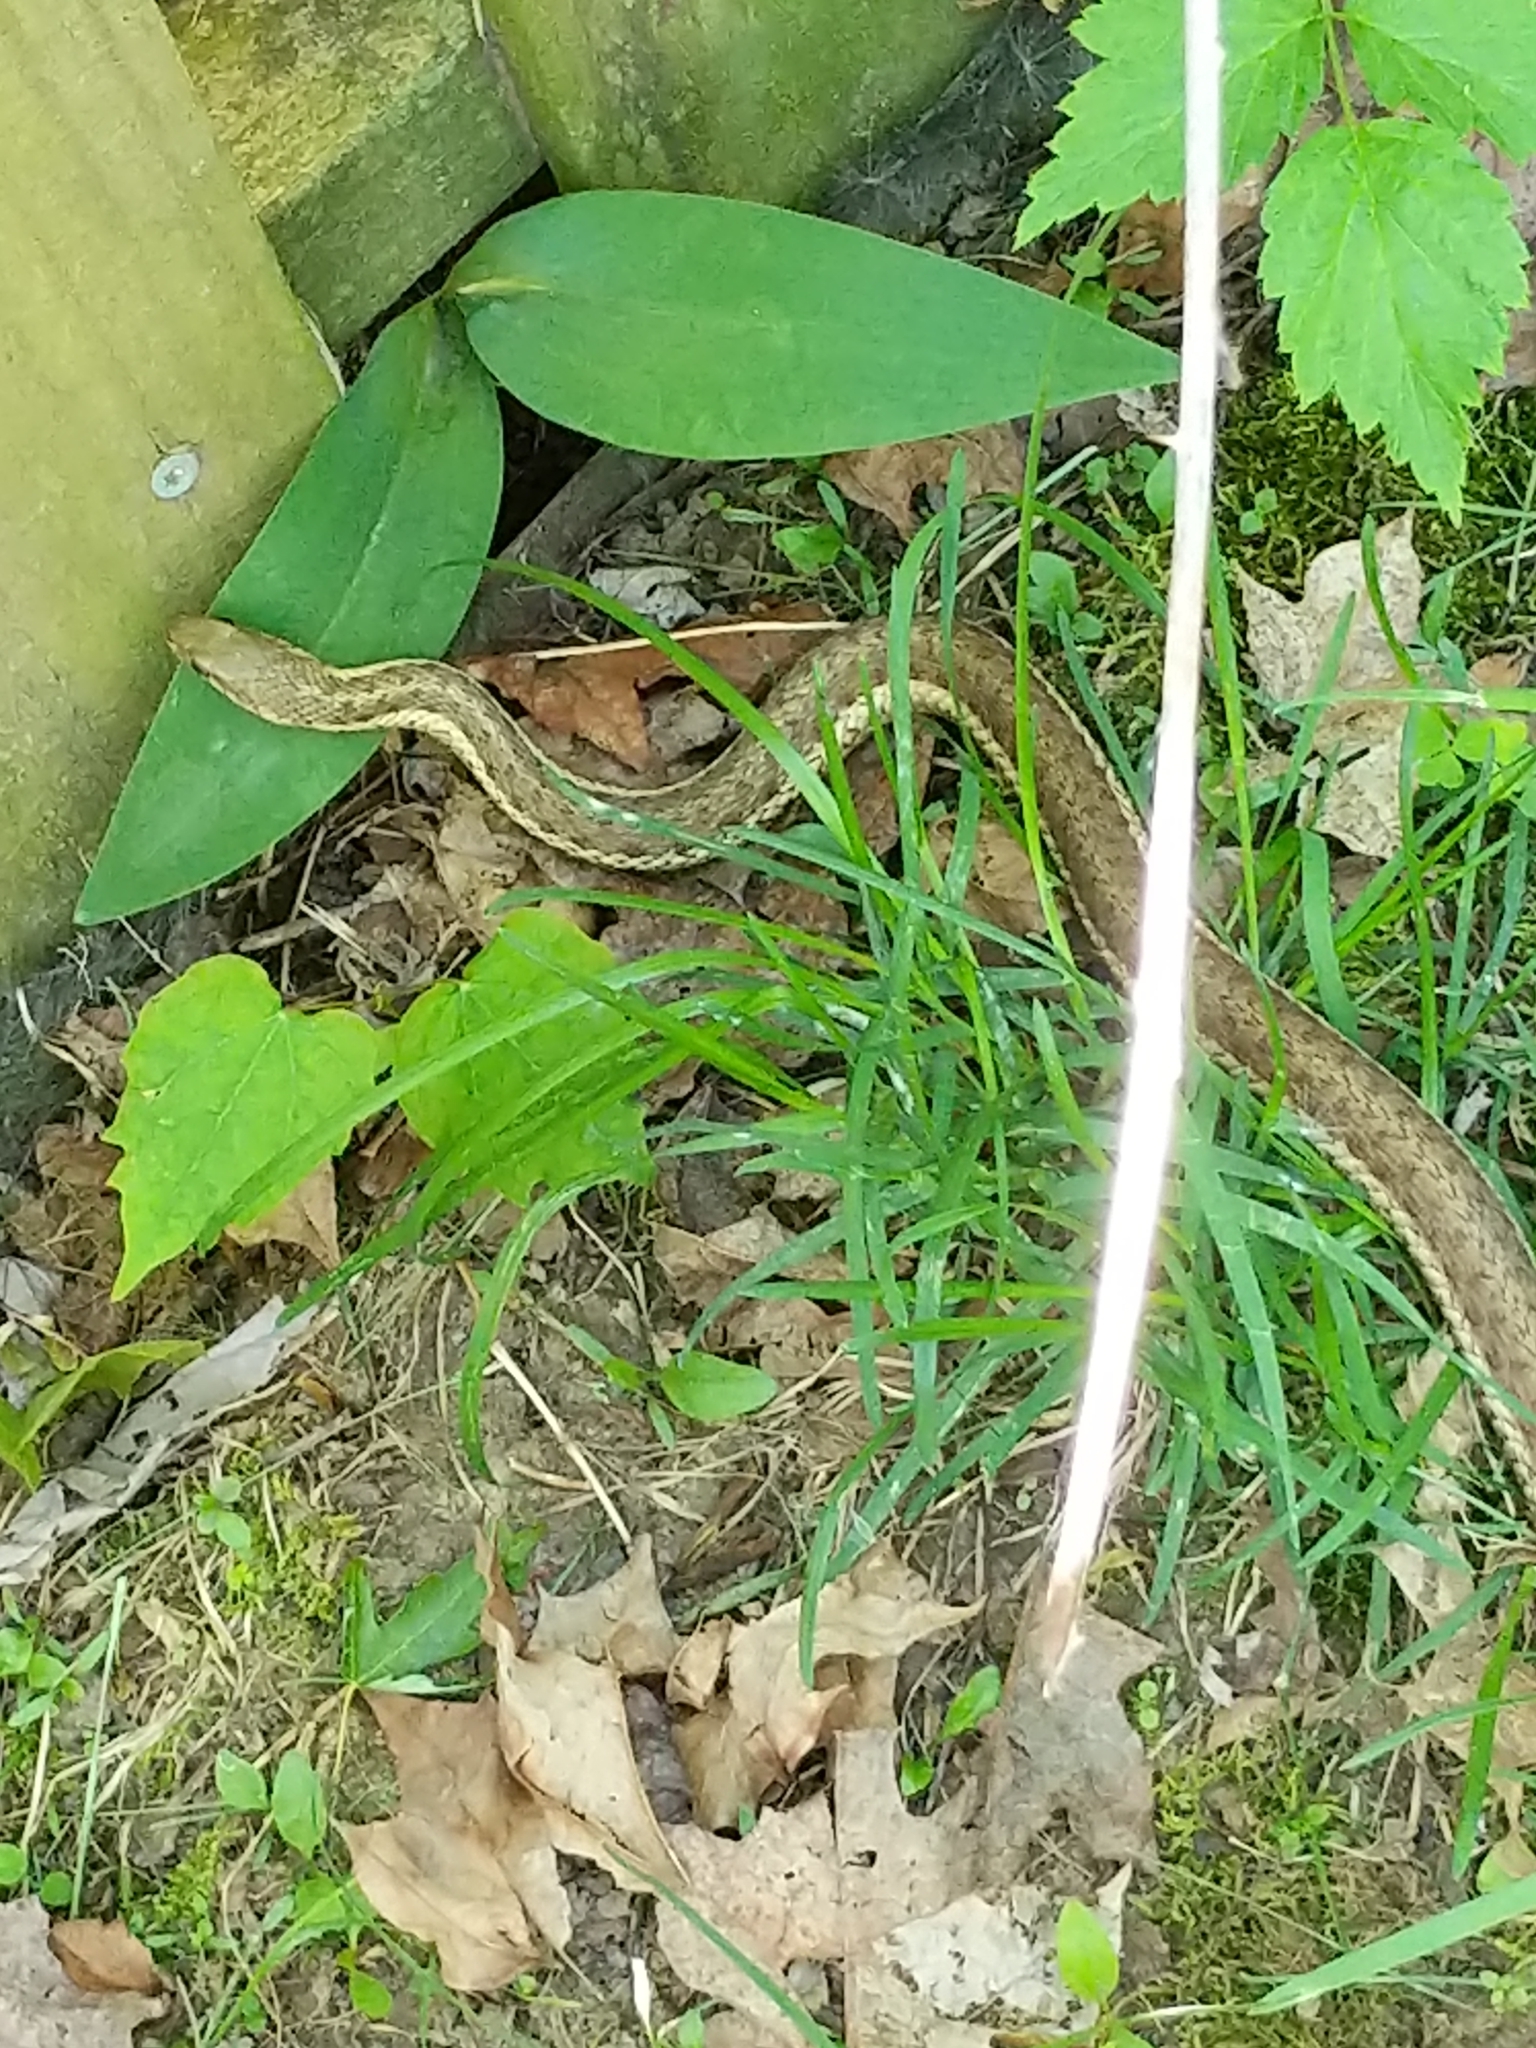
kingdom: Animalia
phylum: Chordata
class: Squamata
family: Colubridae
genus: Thamnophis
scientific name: Thamnophis sirtalis
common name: Common garter snake
